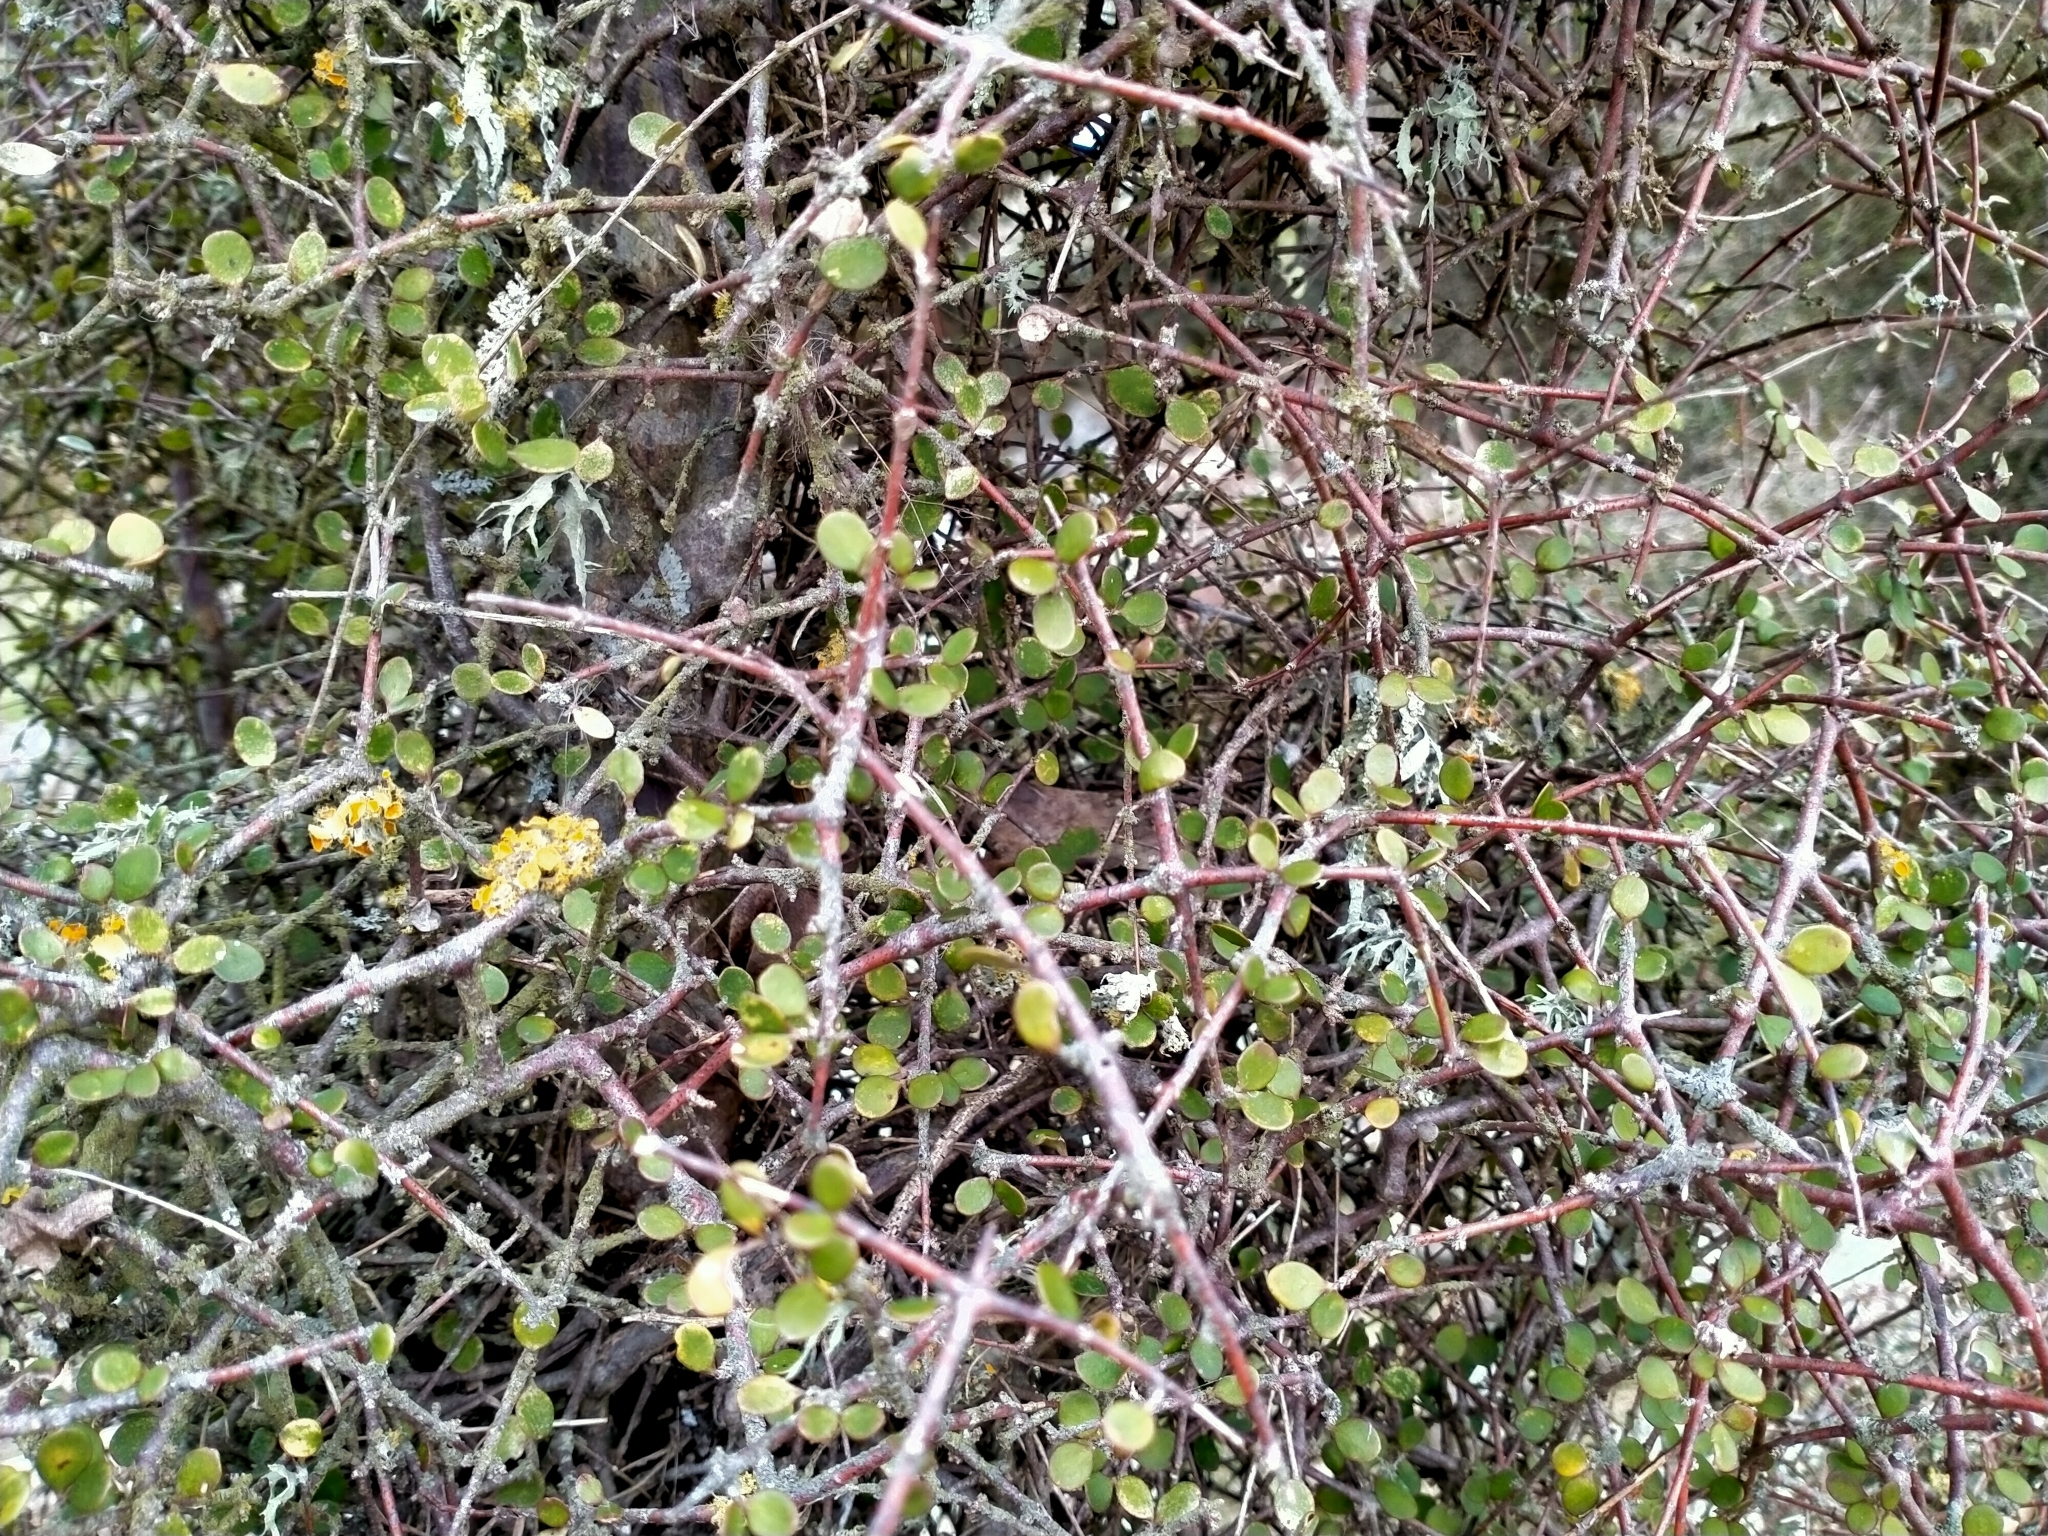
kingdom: Plantae
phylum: Tracheophyta
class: Magnoliopsida
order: Gentianales
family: Rubiaceae
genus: Coprosma
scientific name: Coprosma crassifolia
